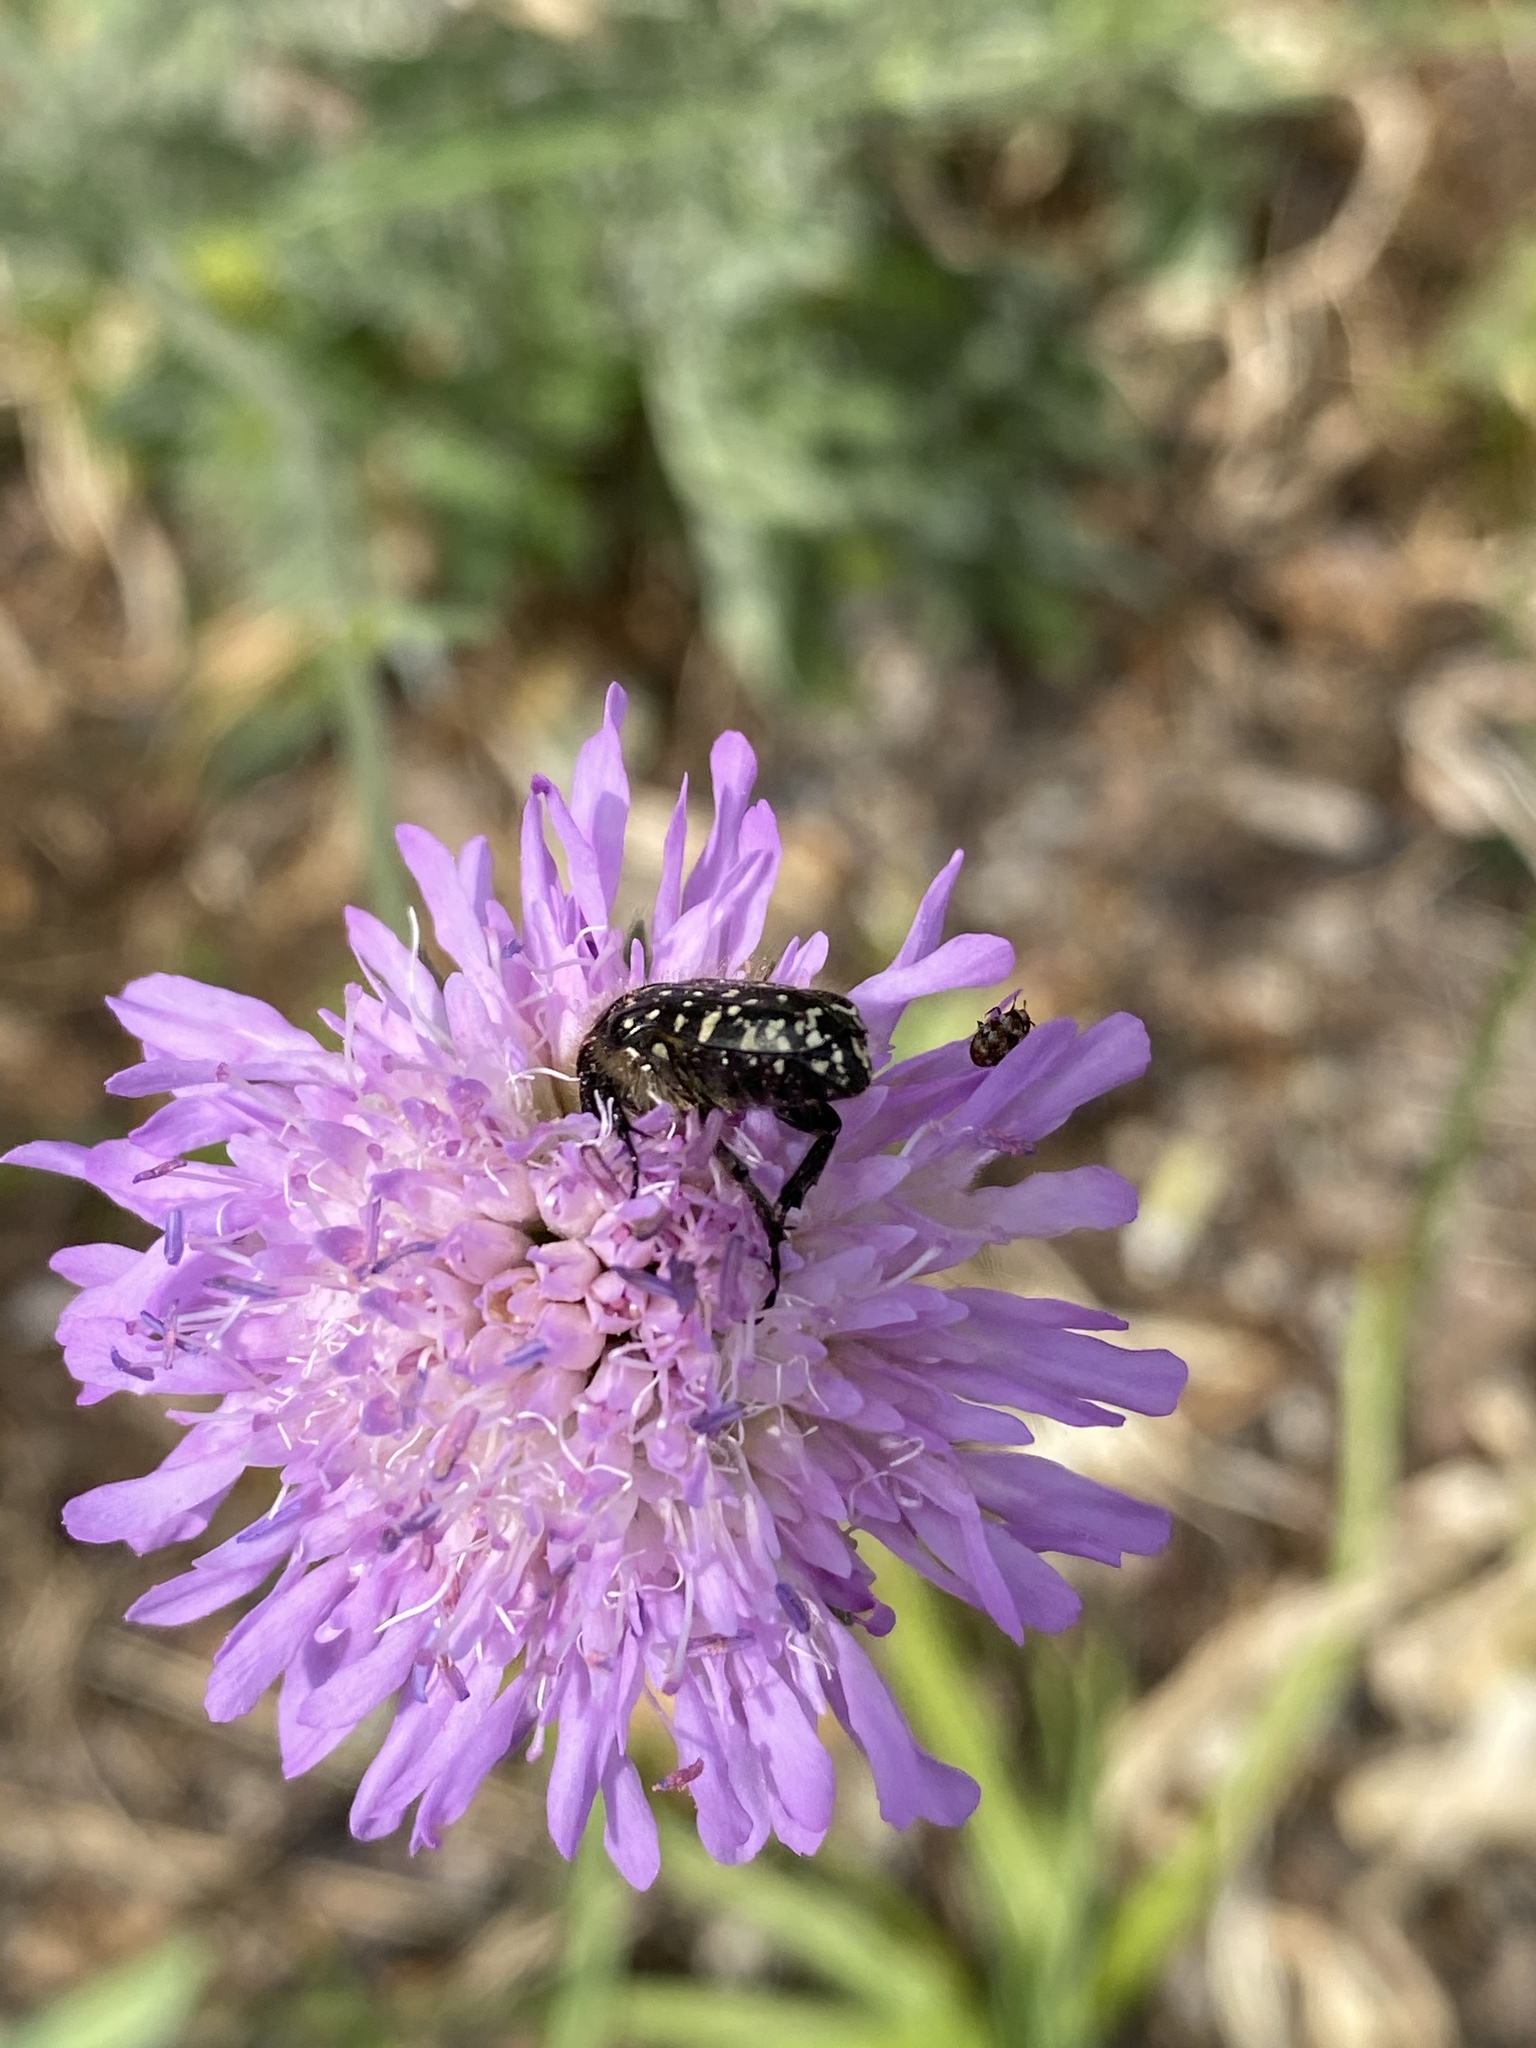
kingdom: Animalia
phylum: Arthropoda
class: Insecta
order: Coleoptera
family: Scarabaeidae
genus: Oxythyrea
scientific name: Oxythyrea funesta
